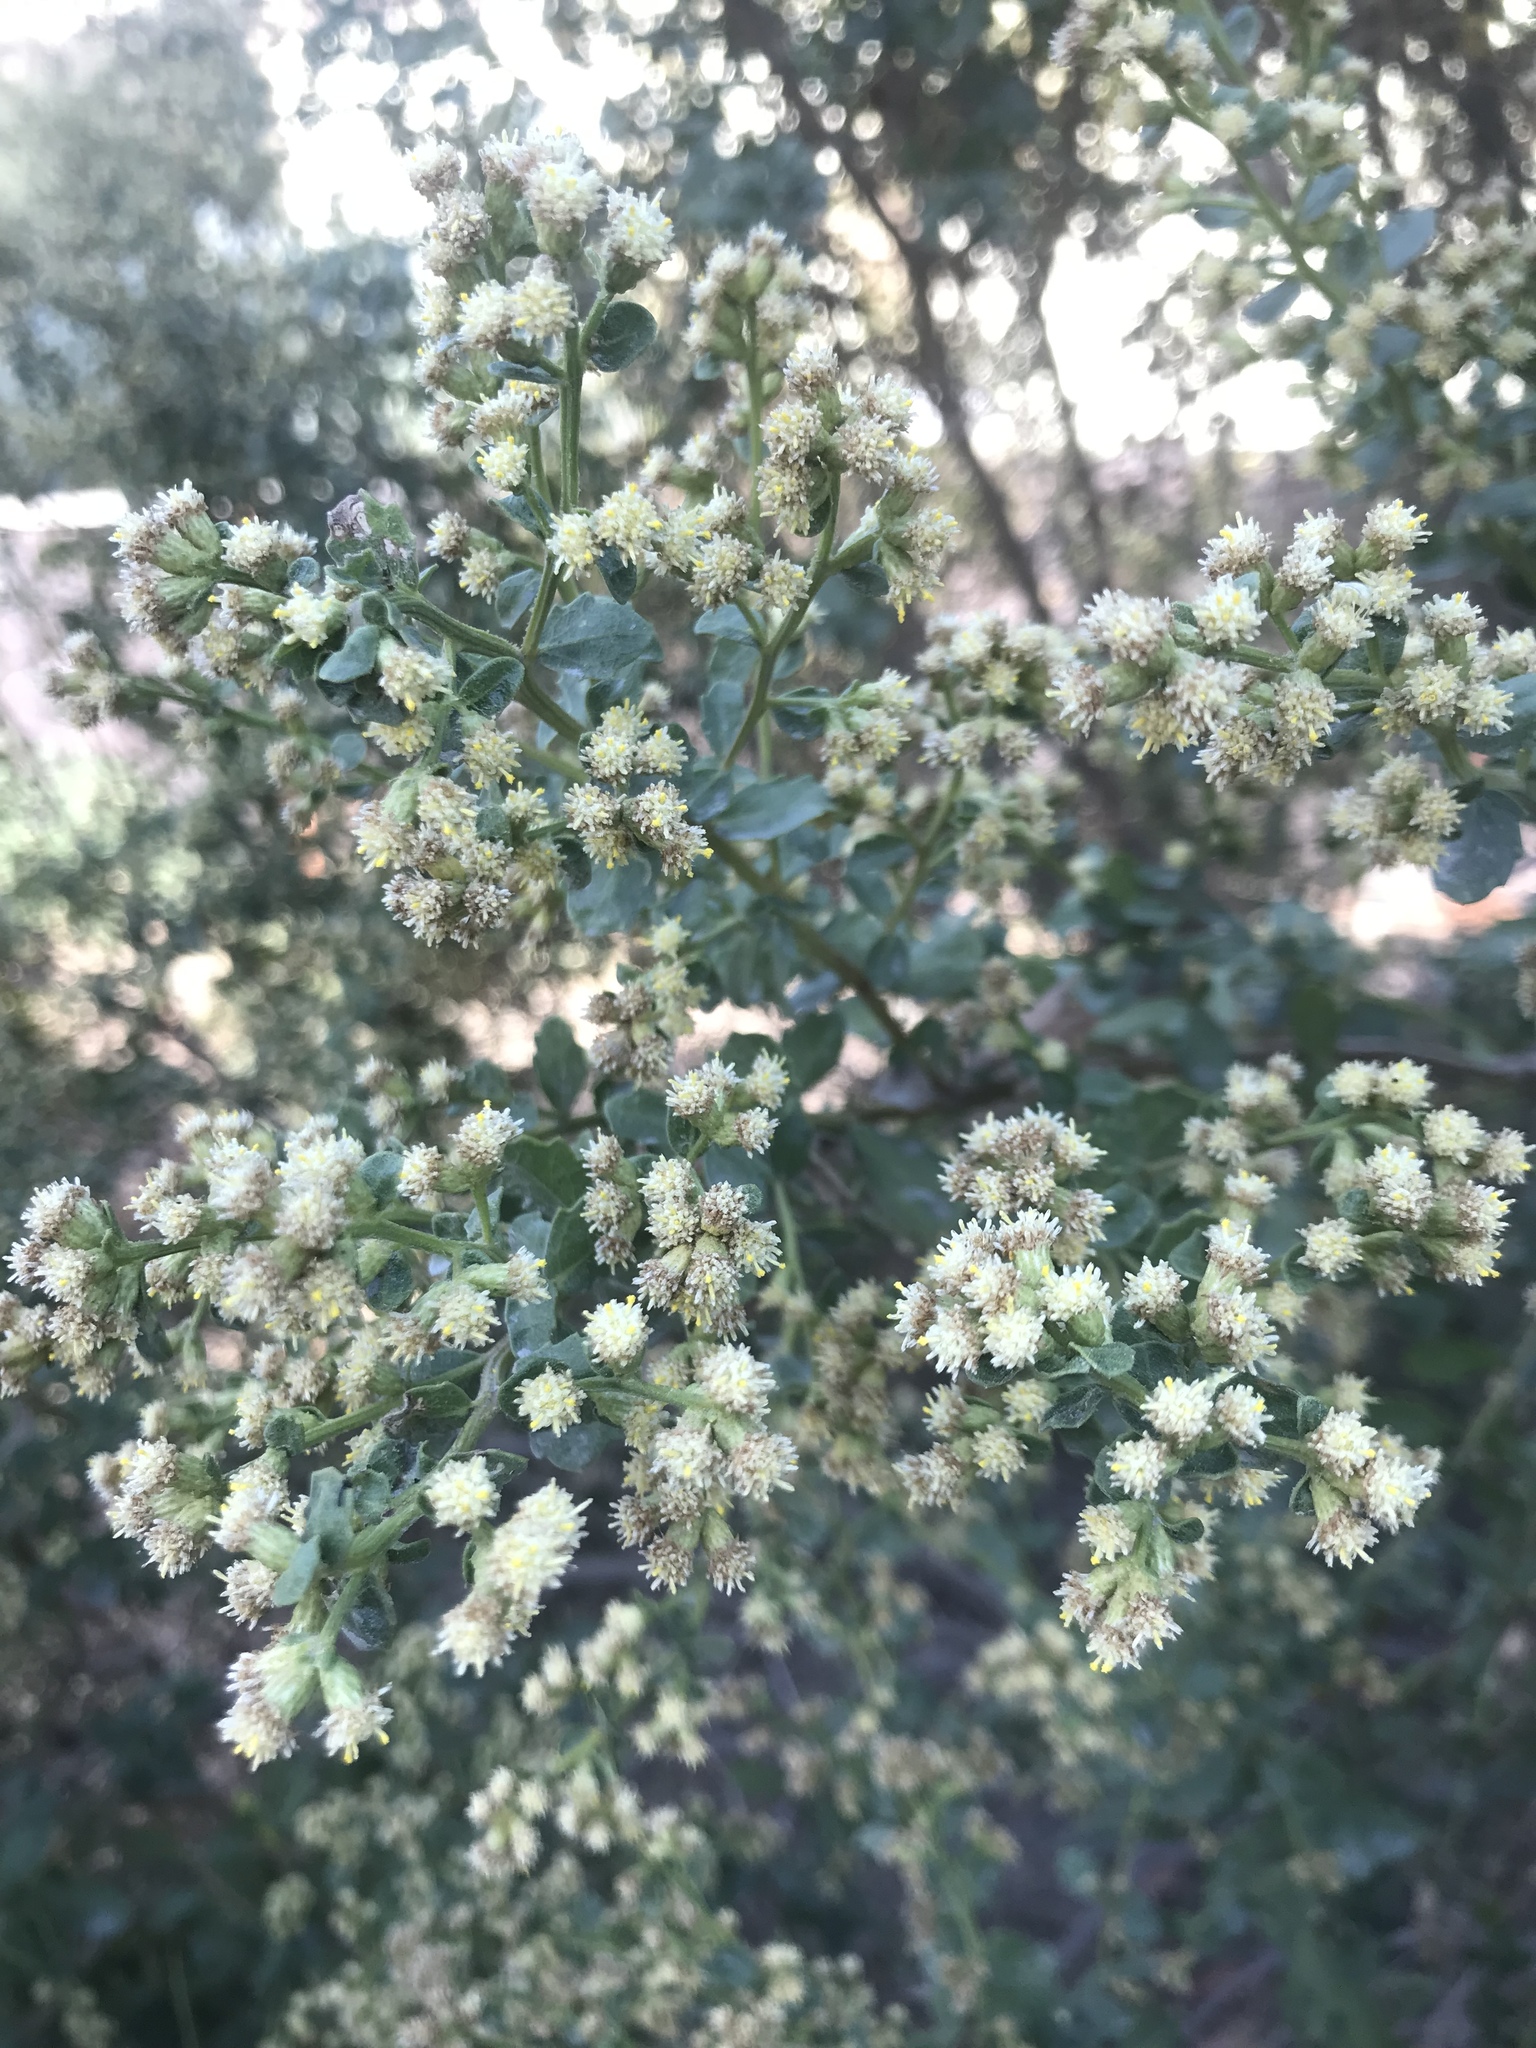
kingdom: Plantae
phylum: Tracheophyta
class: Magnoliopsida
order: Asterales
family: Asteraceae
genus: Baccharis
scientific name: Baccharis pilularis
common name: Coyotebrush
